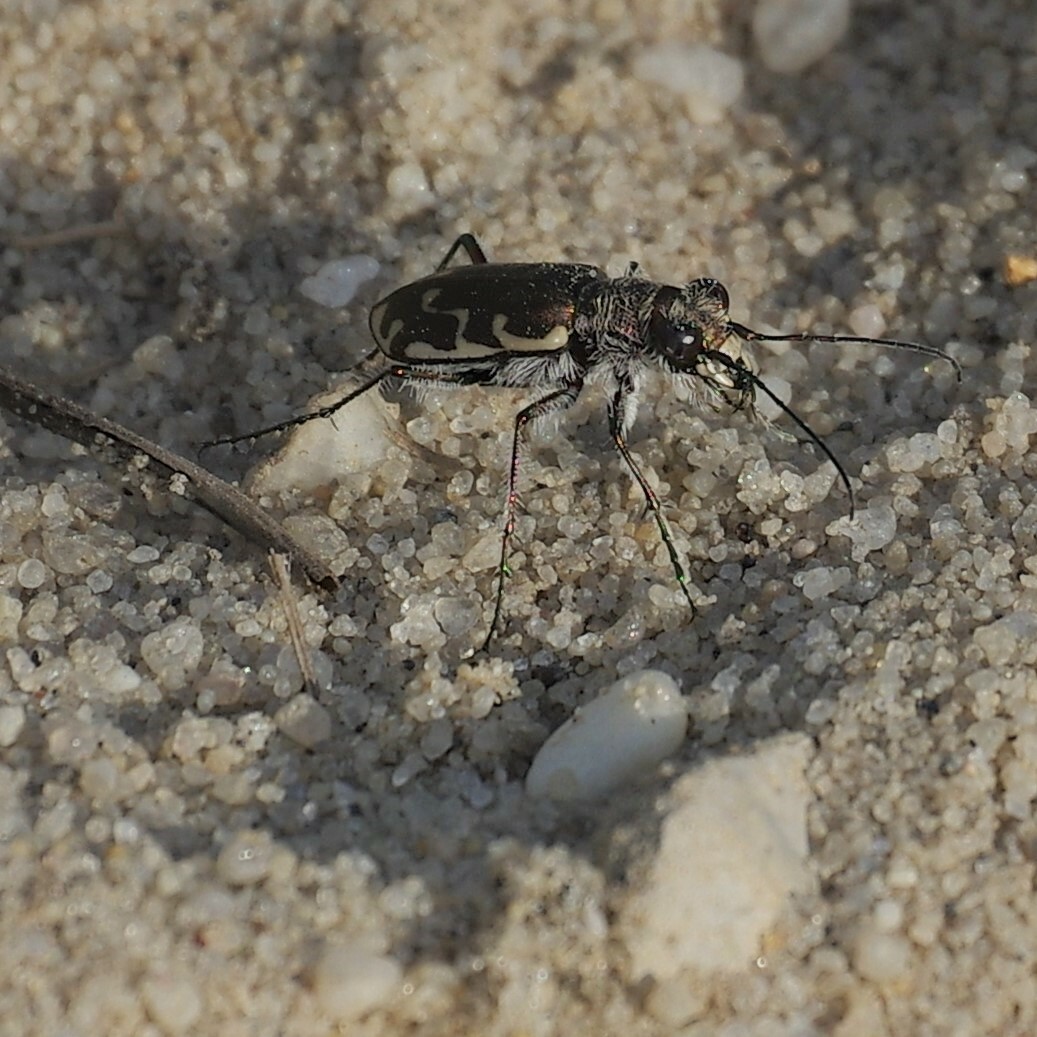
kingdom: Animalia
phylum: Arthropoda
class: Insecta
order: Coleoptera
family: Carabidae
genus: Cicindela
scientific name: Cicindela repanda
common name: Bronzed tiger beetle
